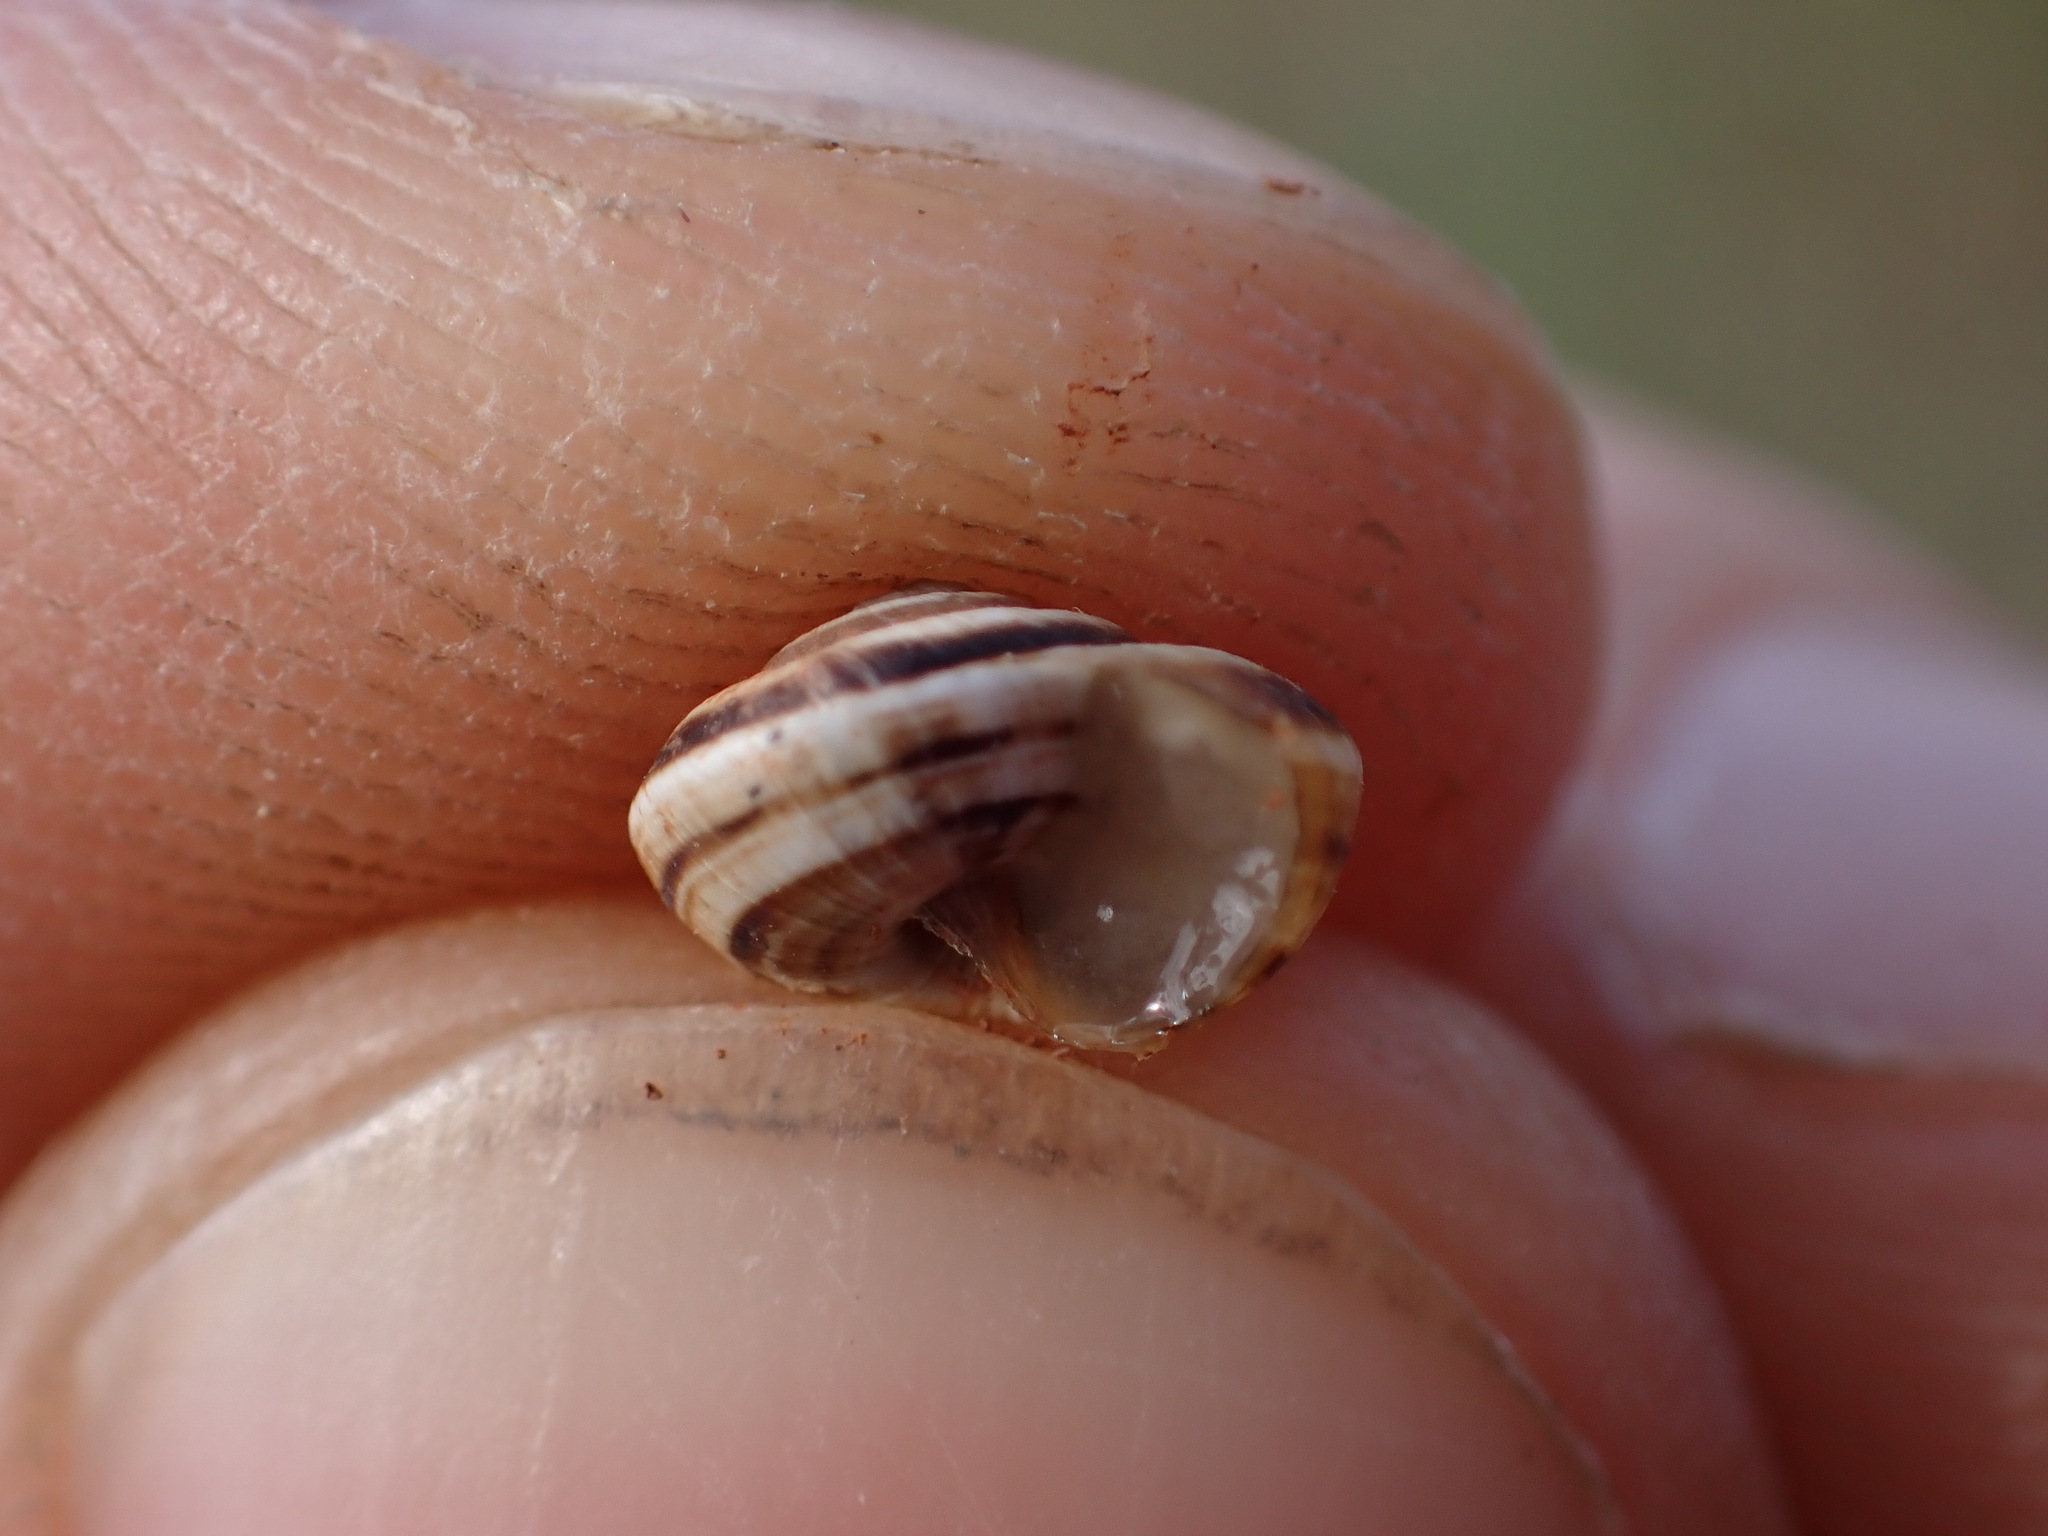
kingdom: Animalia
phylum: Mollusca
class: Gastropoda
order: Stylommatophora
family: Geomitridae
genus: Cernuella
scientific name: Cernuella virgata
